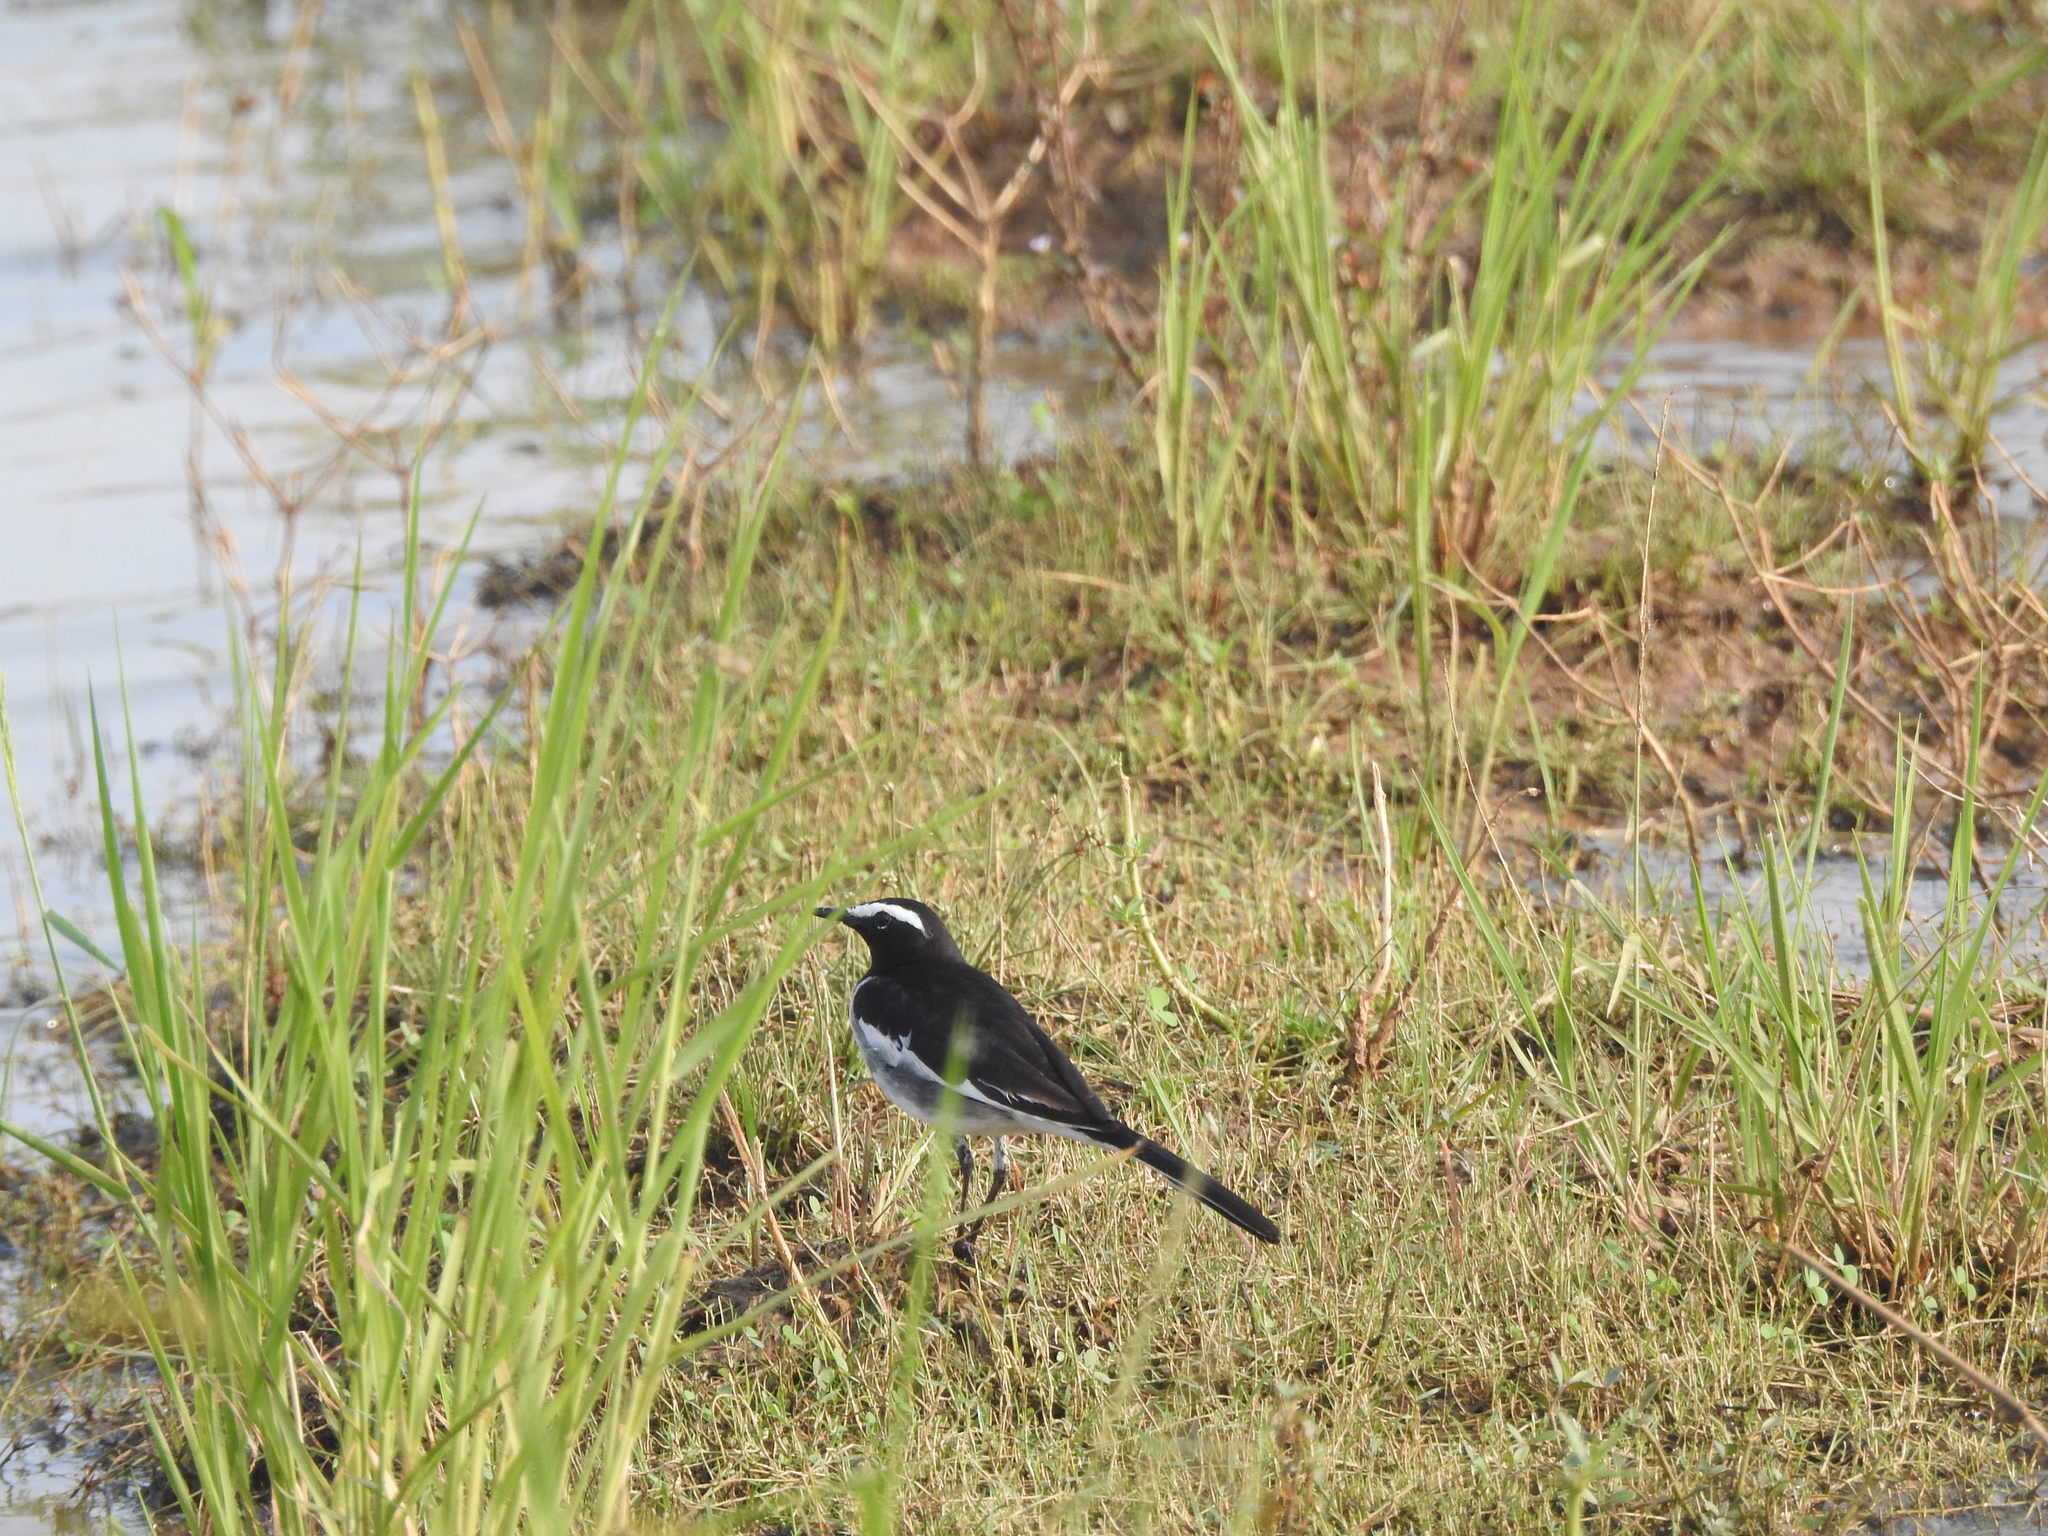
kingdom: Animalia
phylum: Chordata
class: Aves
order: Passeriformes
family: Motacillidae
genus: Motacilla
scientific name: Motacilla maderaspatensis
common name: White-browed wagtail
